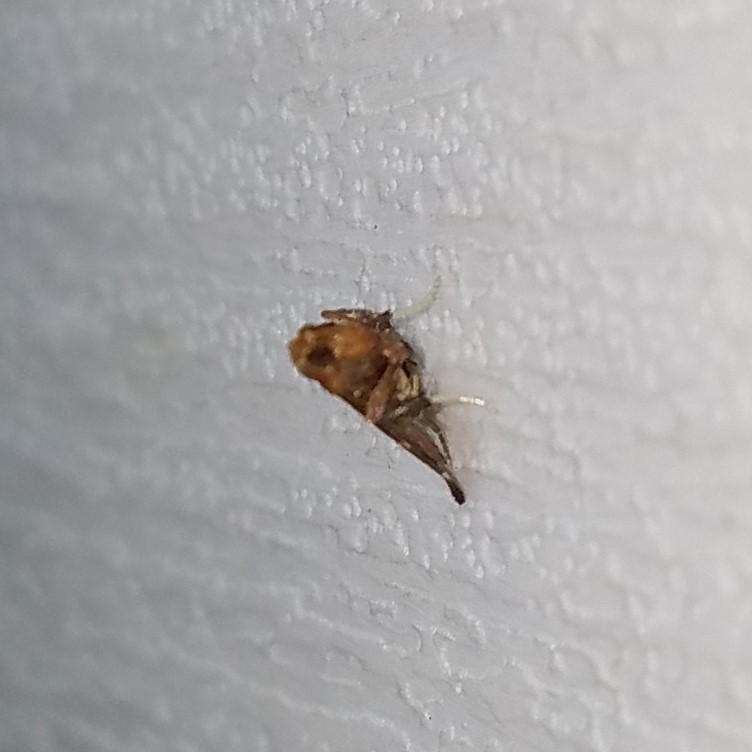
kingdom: Animalia
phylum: Arthropoda
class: Insecta
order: Lepidoptera
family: Pyralidae
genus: Arta
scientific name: Arta statalis
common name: Posturing arta moth
